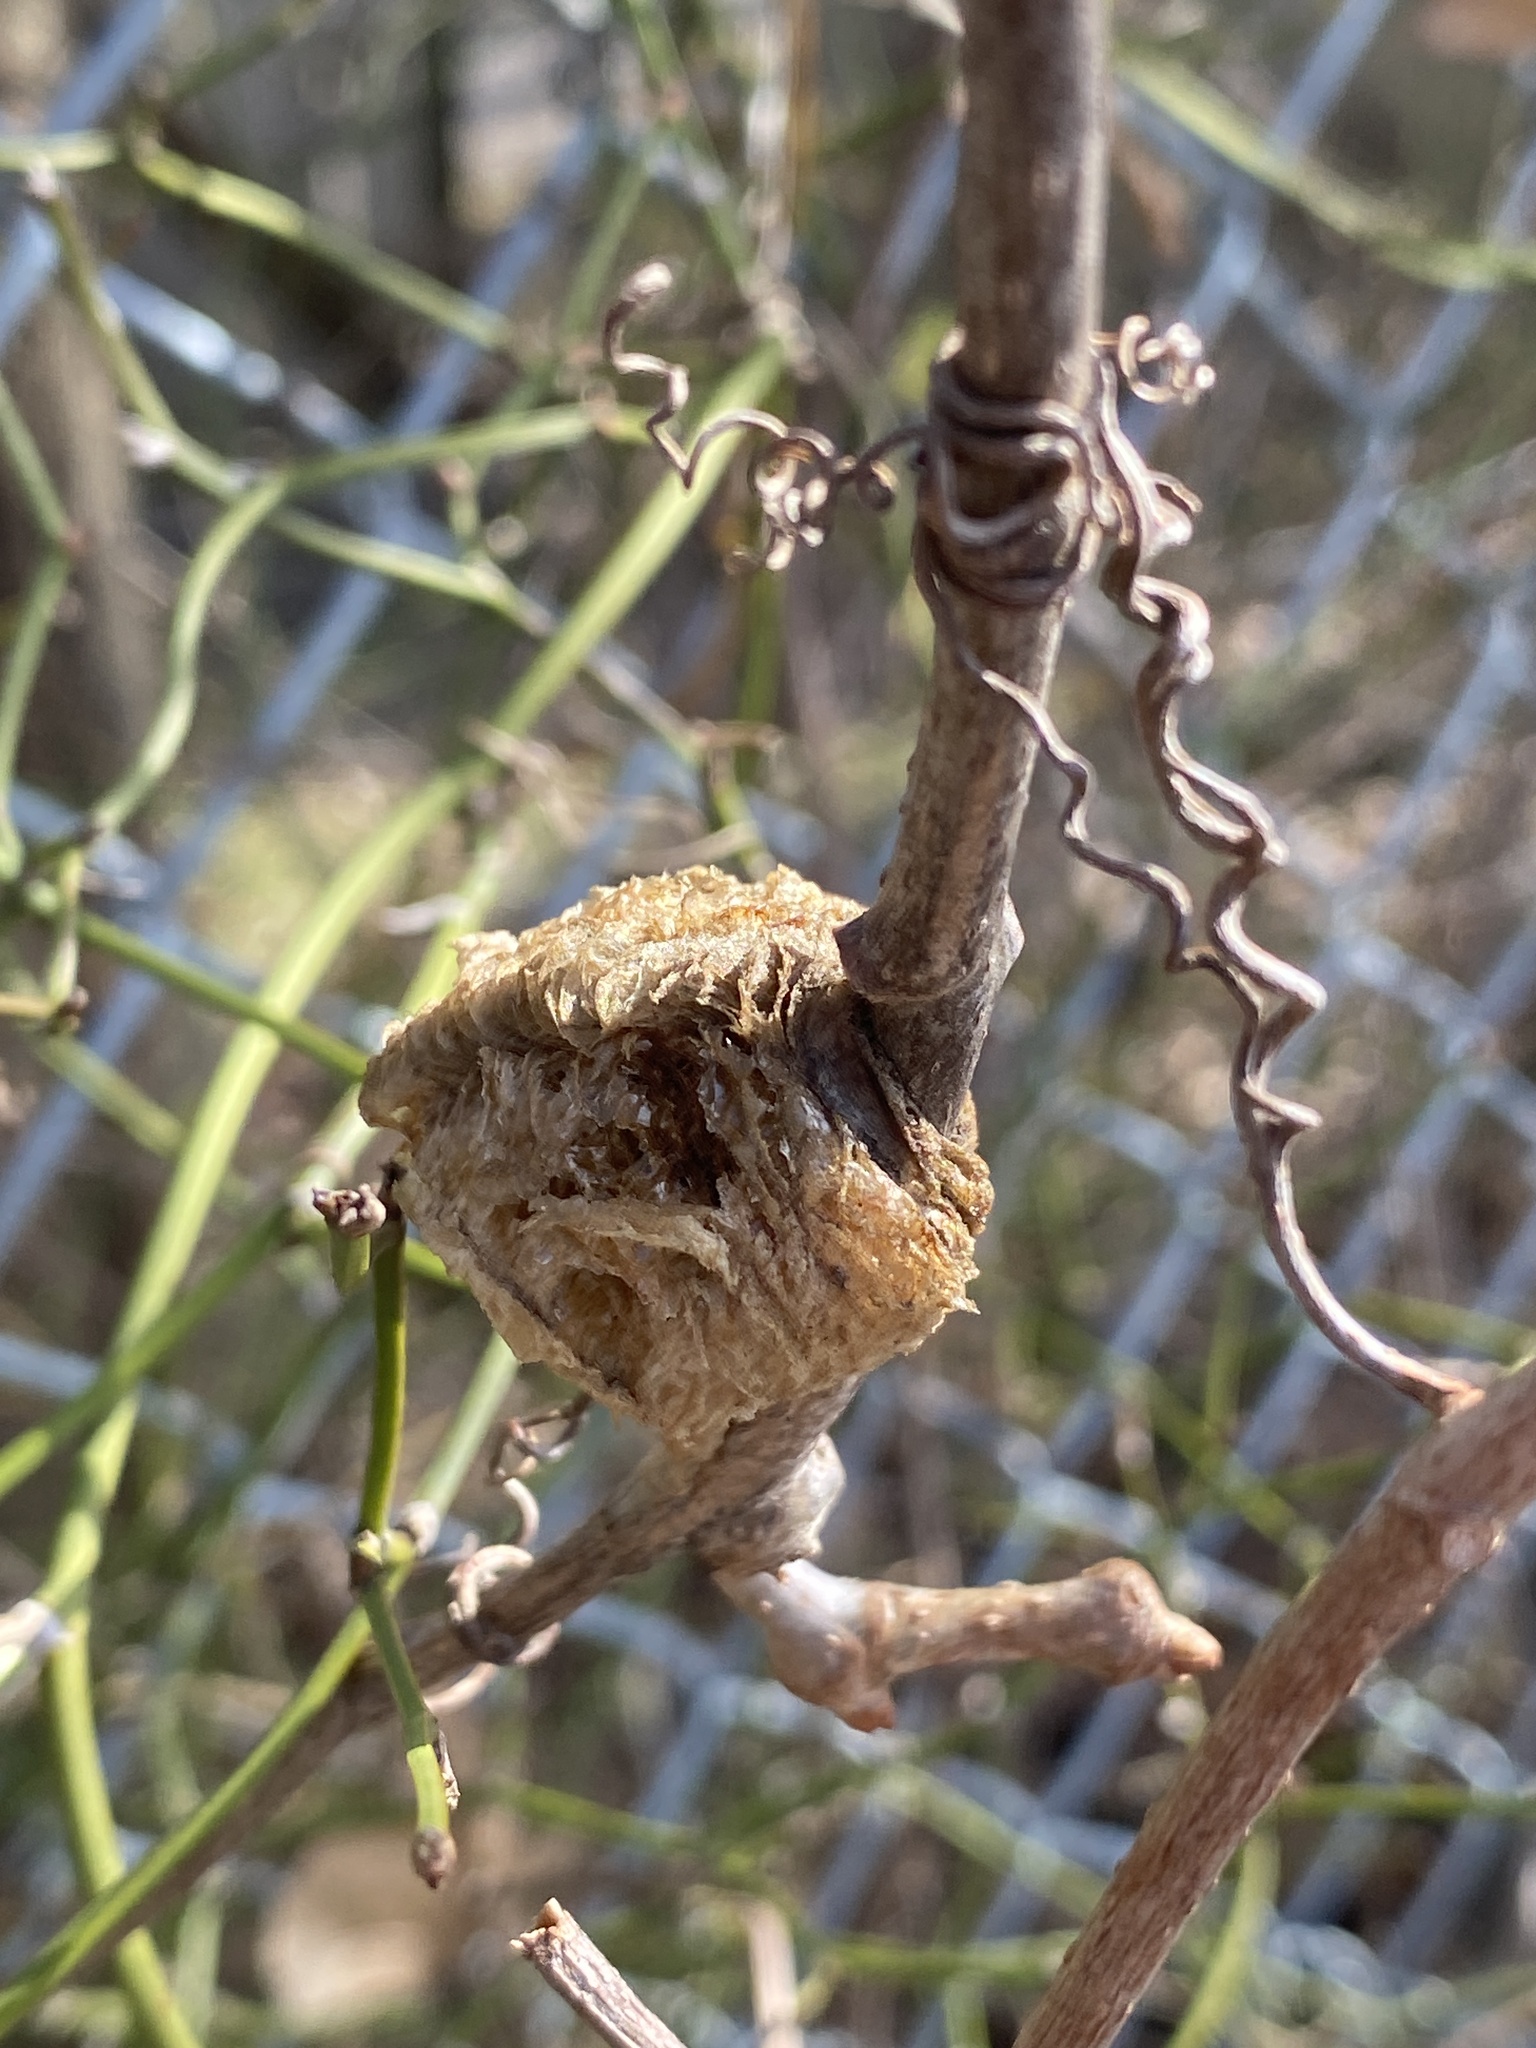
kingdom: Animalia
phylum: Arthropoda
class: Insecta
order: Mantodea
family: Mantidae
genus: Tenodera
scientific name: Tenodera sinensis
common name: Chinese mantis
